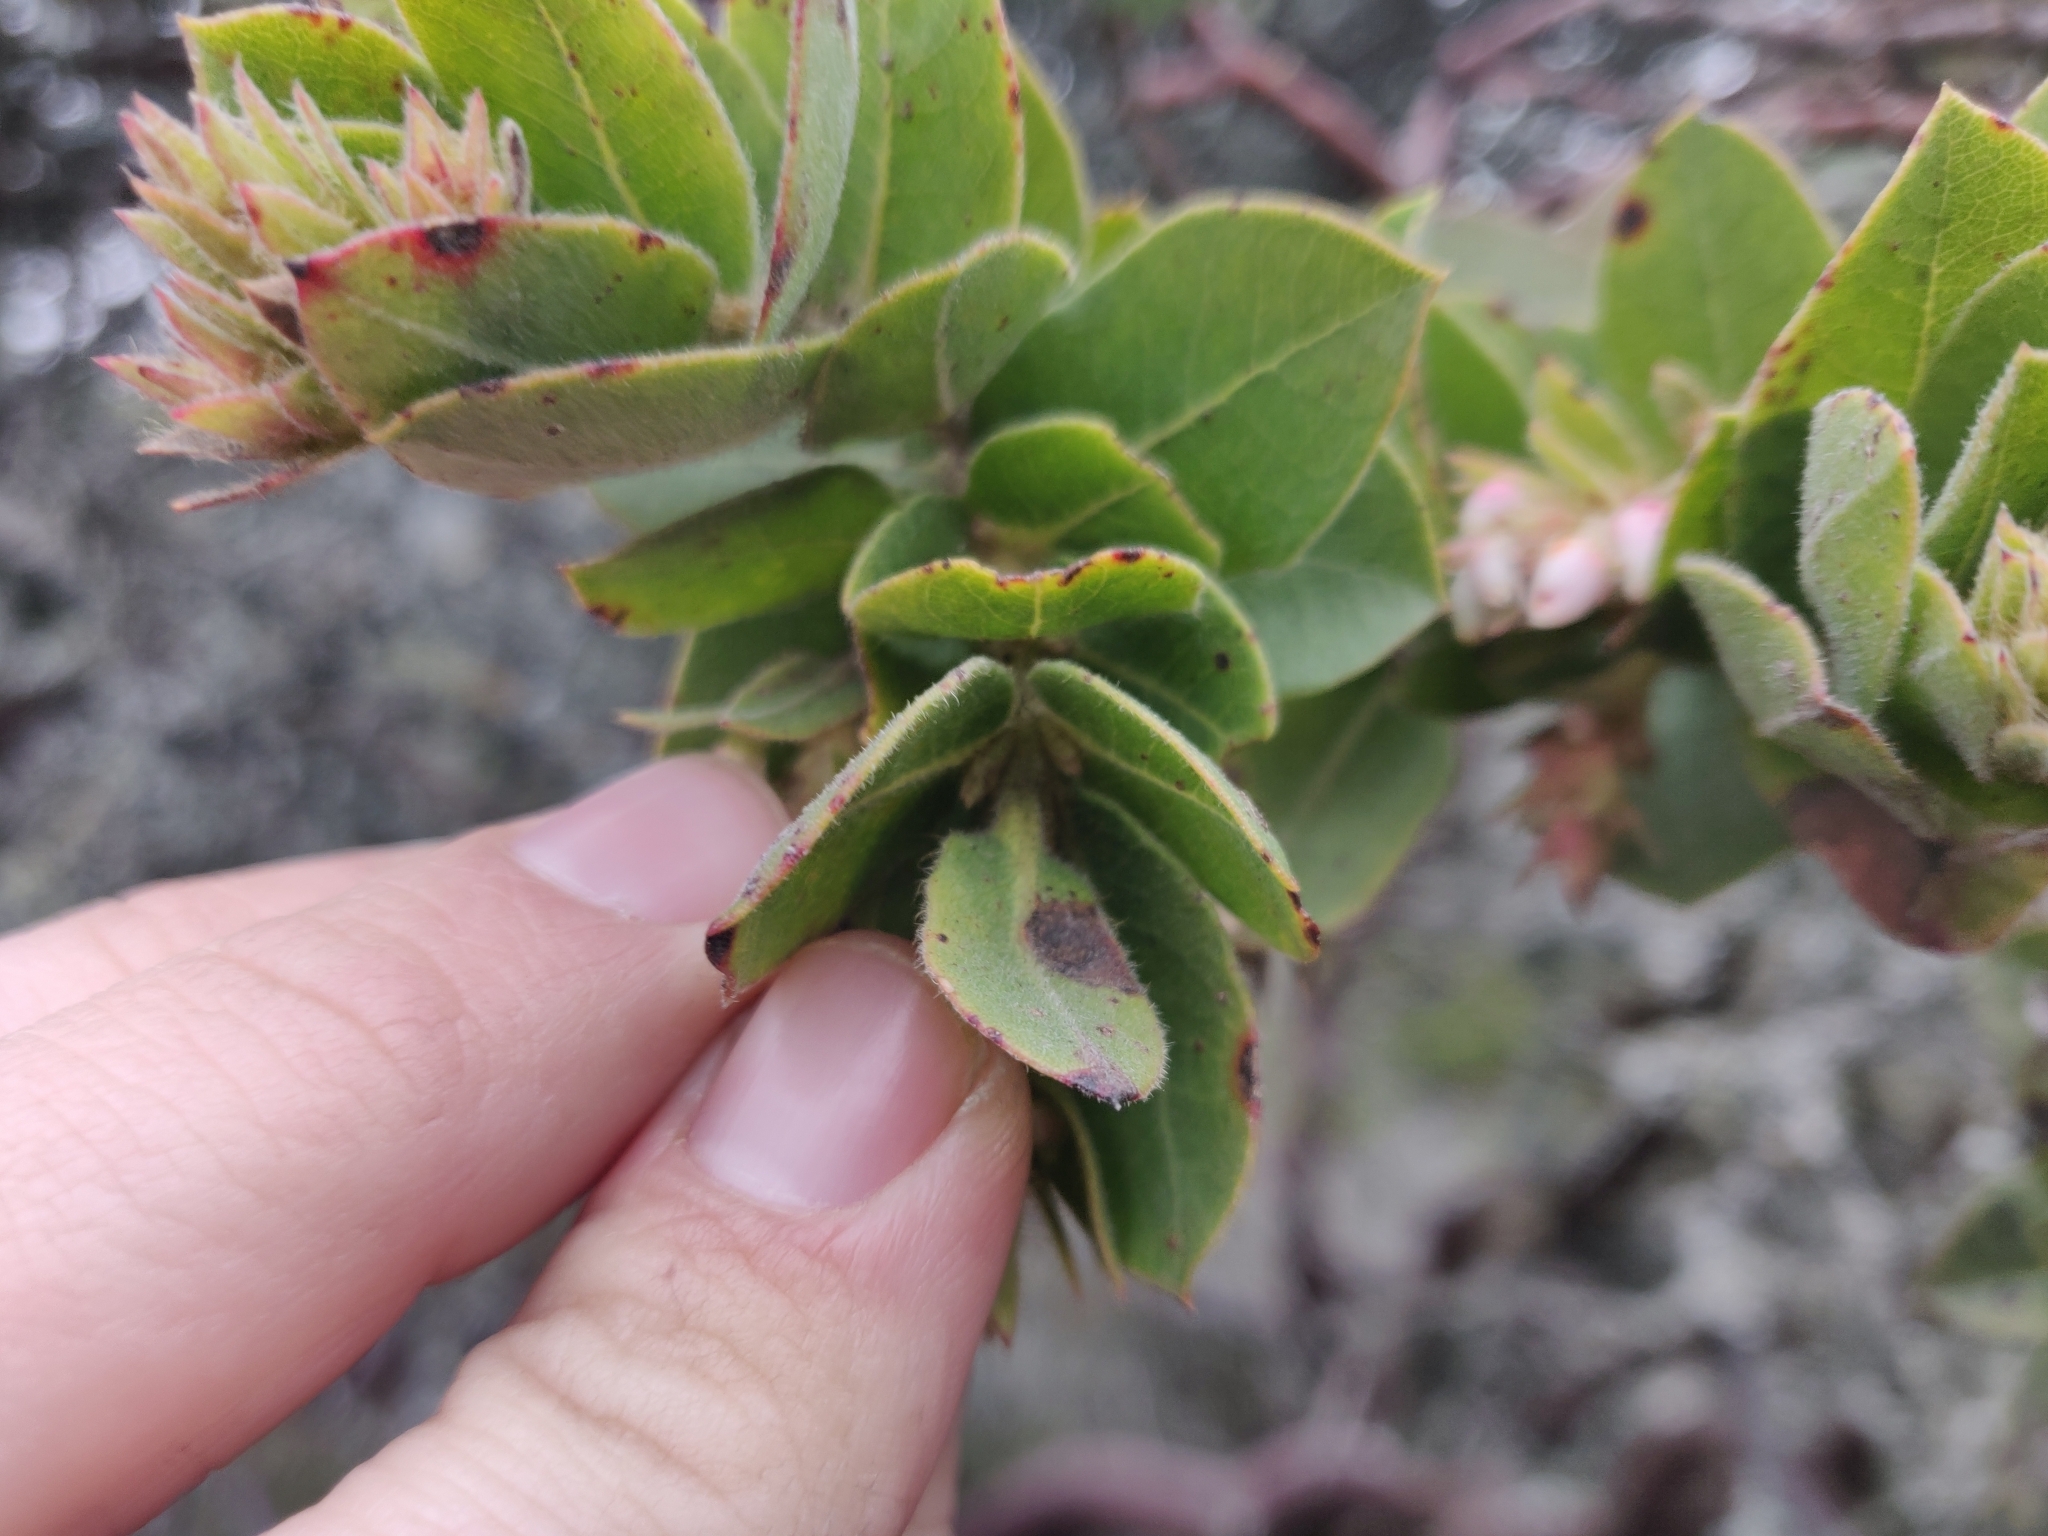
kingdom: Plantae
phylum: Tracheophyta
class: Magnoliopsida
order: Ericales
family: Ericaceae
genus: Arctostaphylos
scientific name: Arctostaphylos montaraensis
